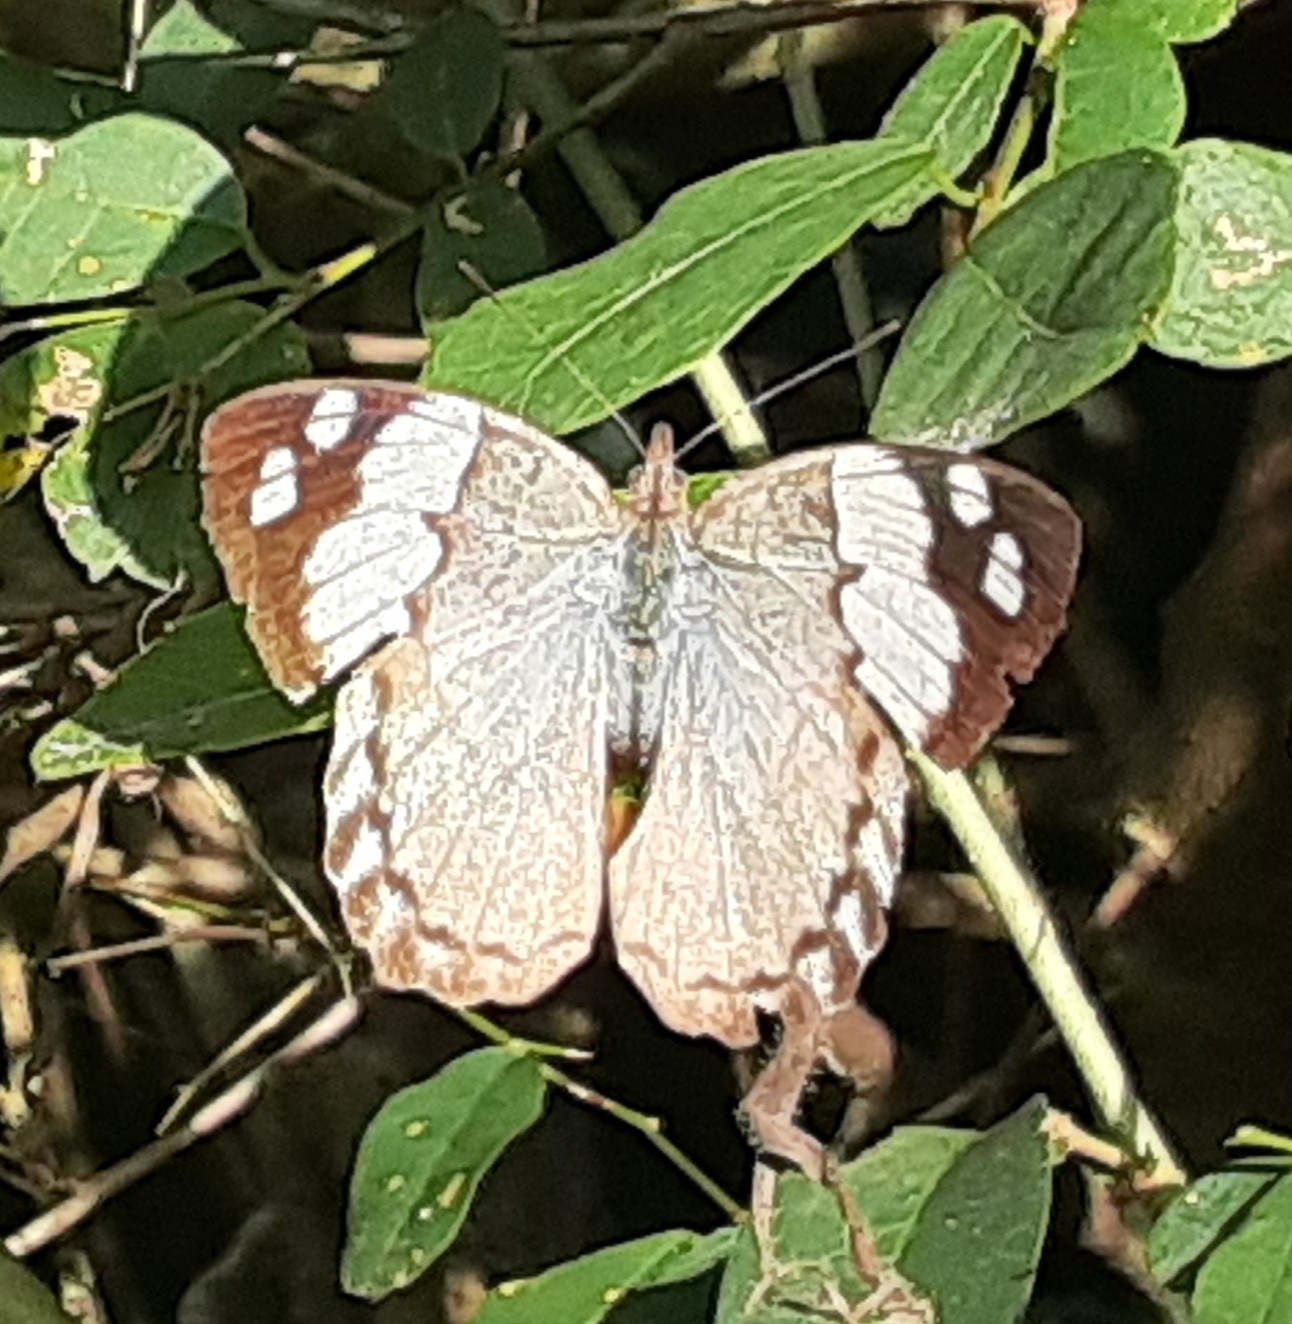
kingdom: Animalia
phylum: Arthropoda
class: Insecta
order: Lepidoptera
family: Nymphalidae
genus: Eunica
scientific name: Eunica eburnea
